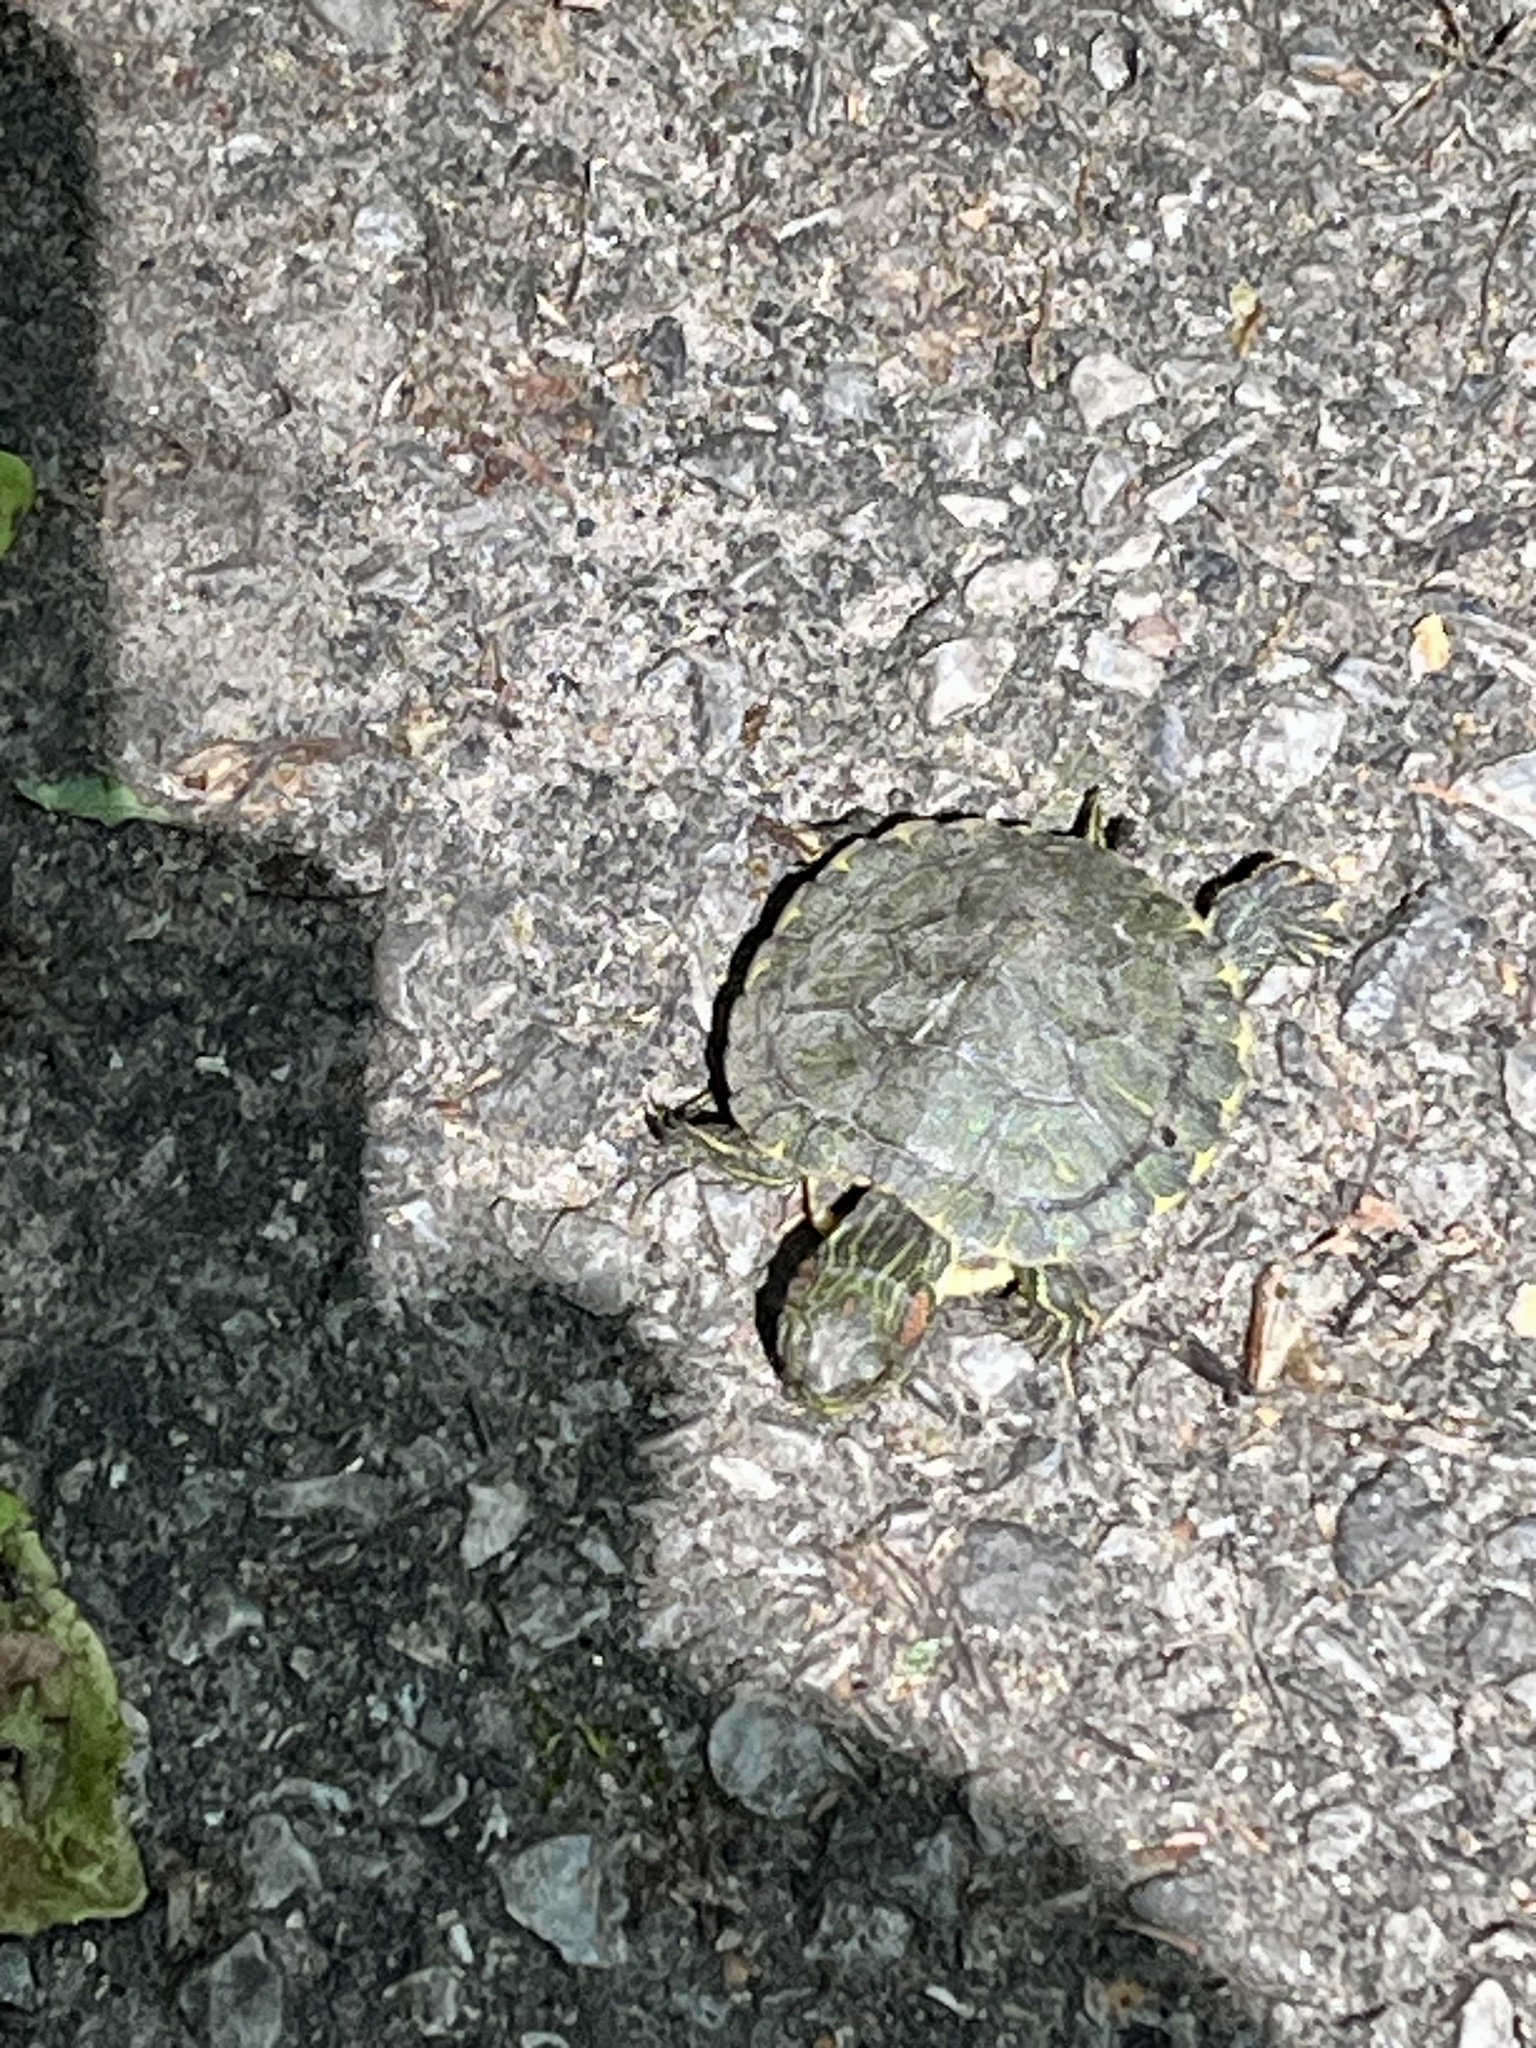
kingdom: Animalia
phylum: Chordata
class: Testudines
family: Emydidae
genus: Trachemys
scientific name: Trachemys scripta
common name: Slider
